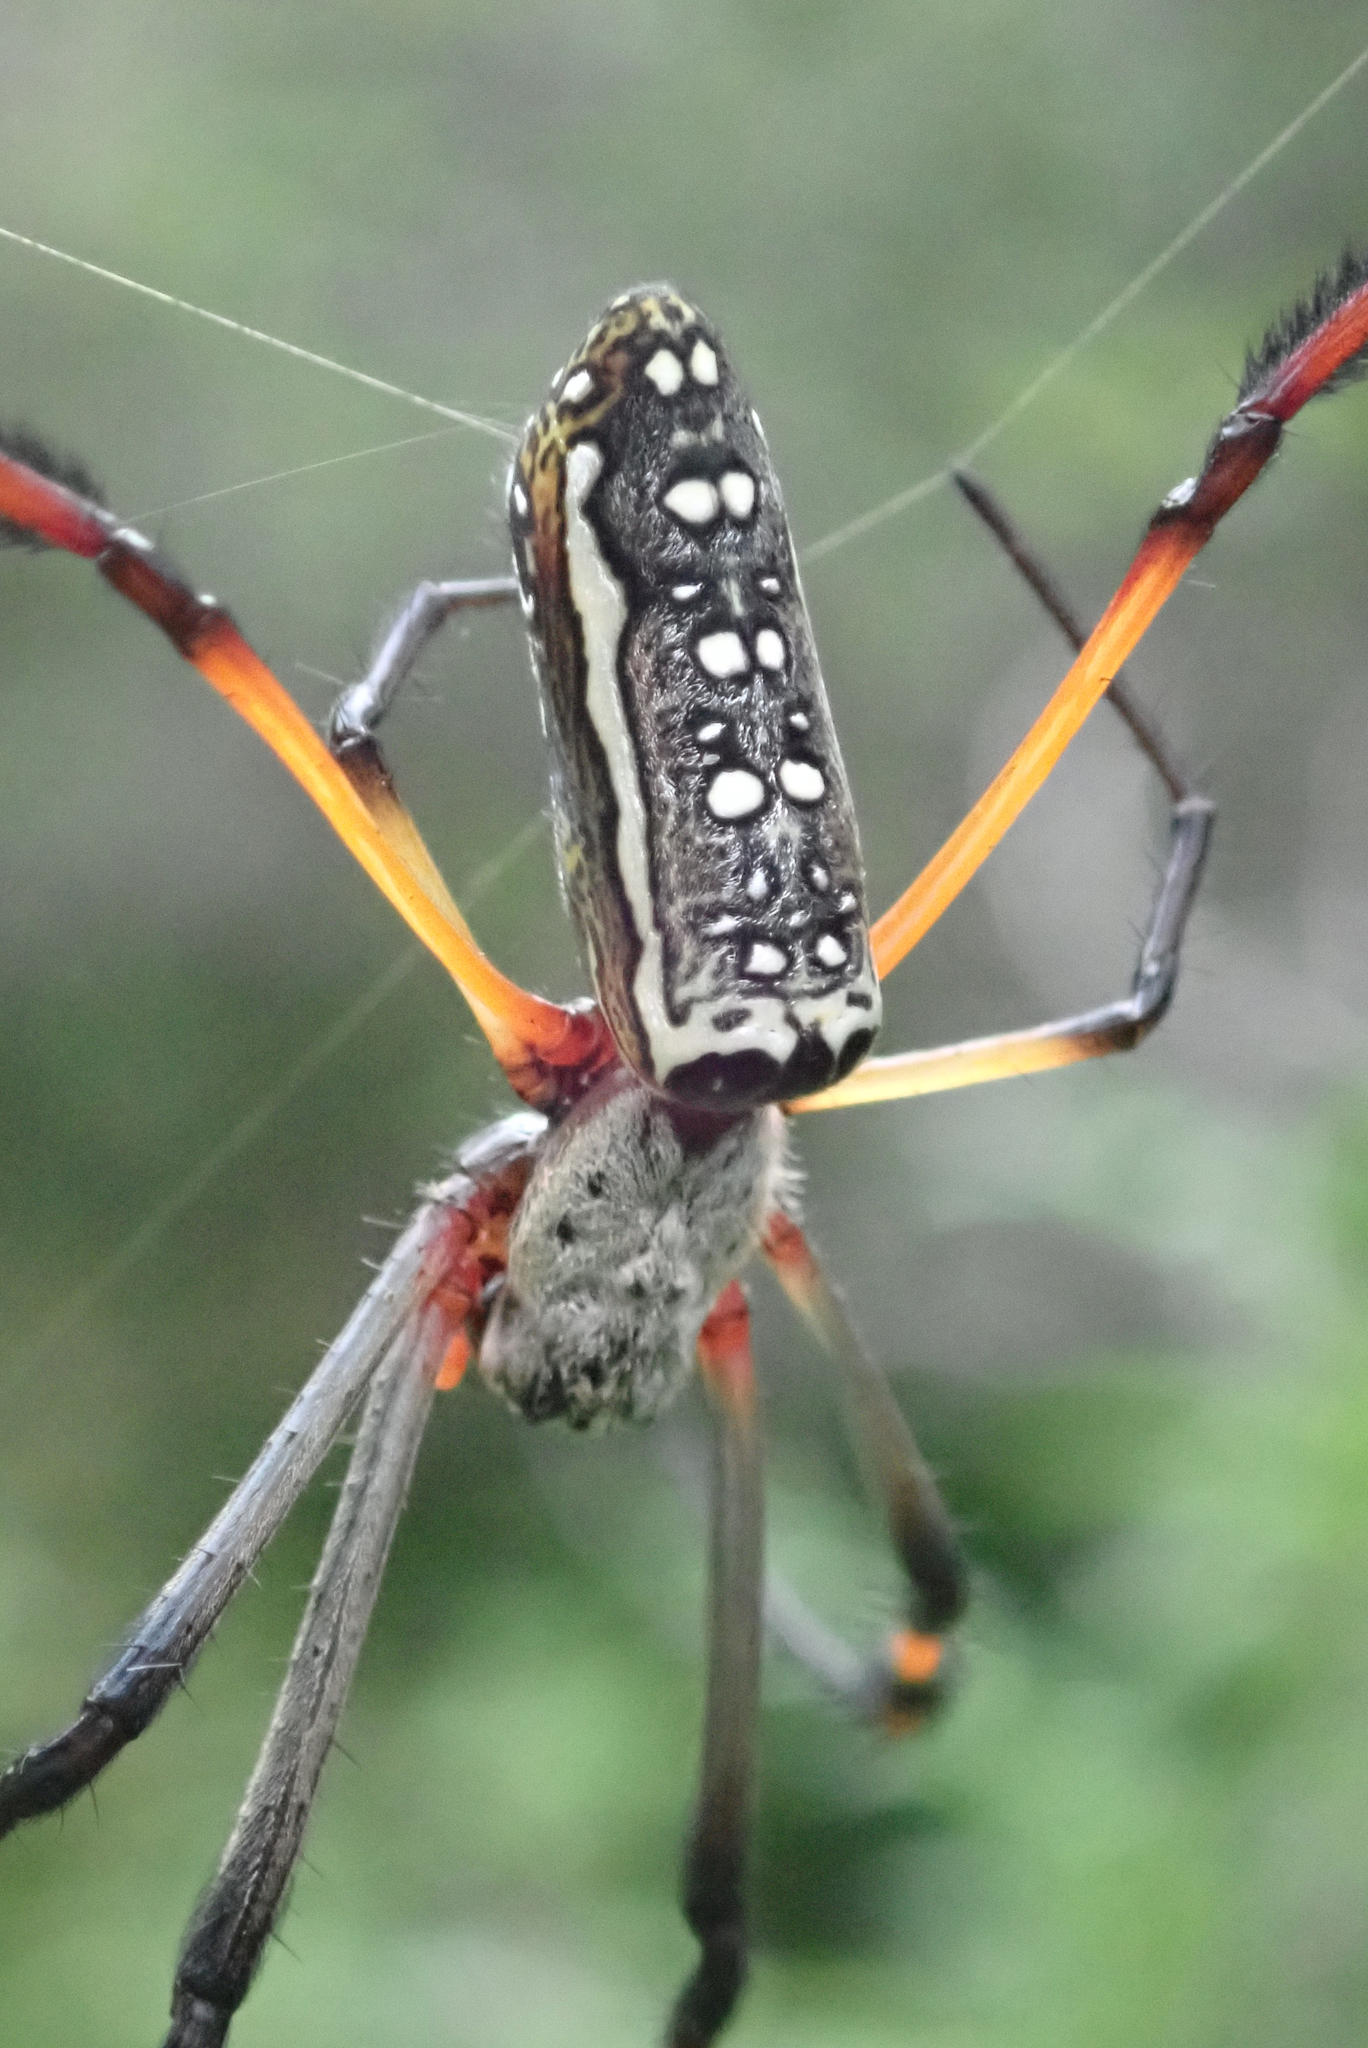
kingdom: Animalia
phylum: Arthropoda
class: Arachnida
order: Araneae
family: Araneidae
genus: Trichonephila
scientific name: Trichonephila inaurata
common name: Red-legged golden orb weaver
